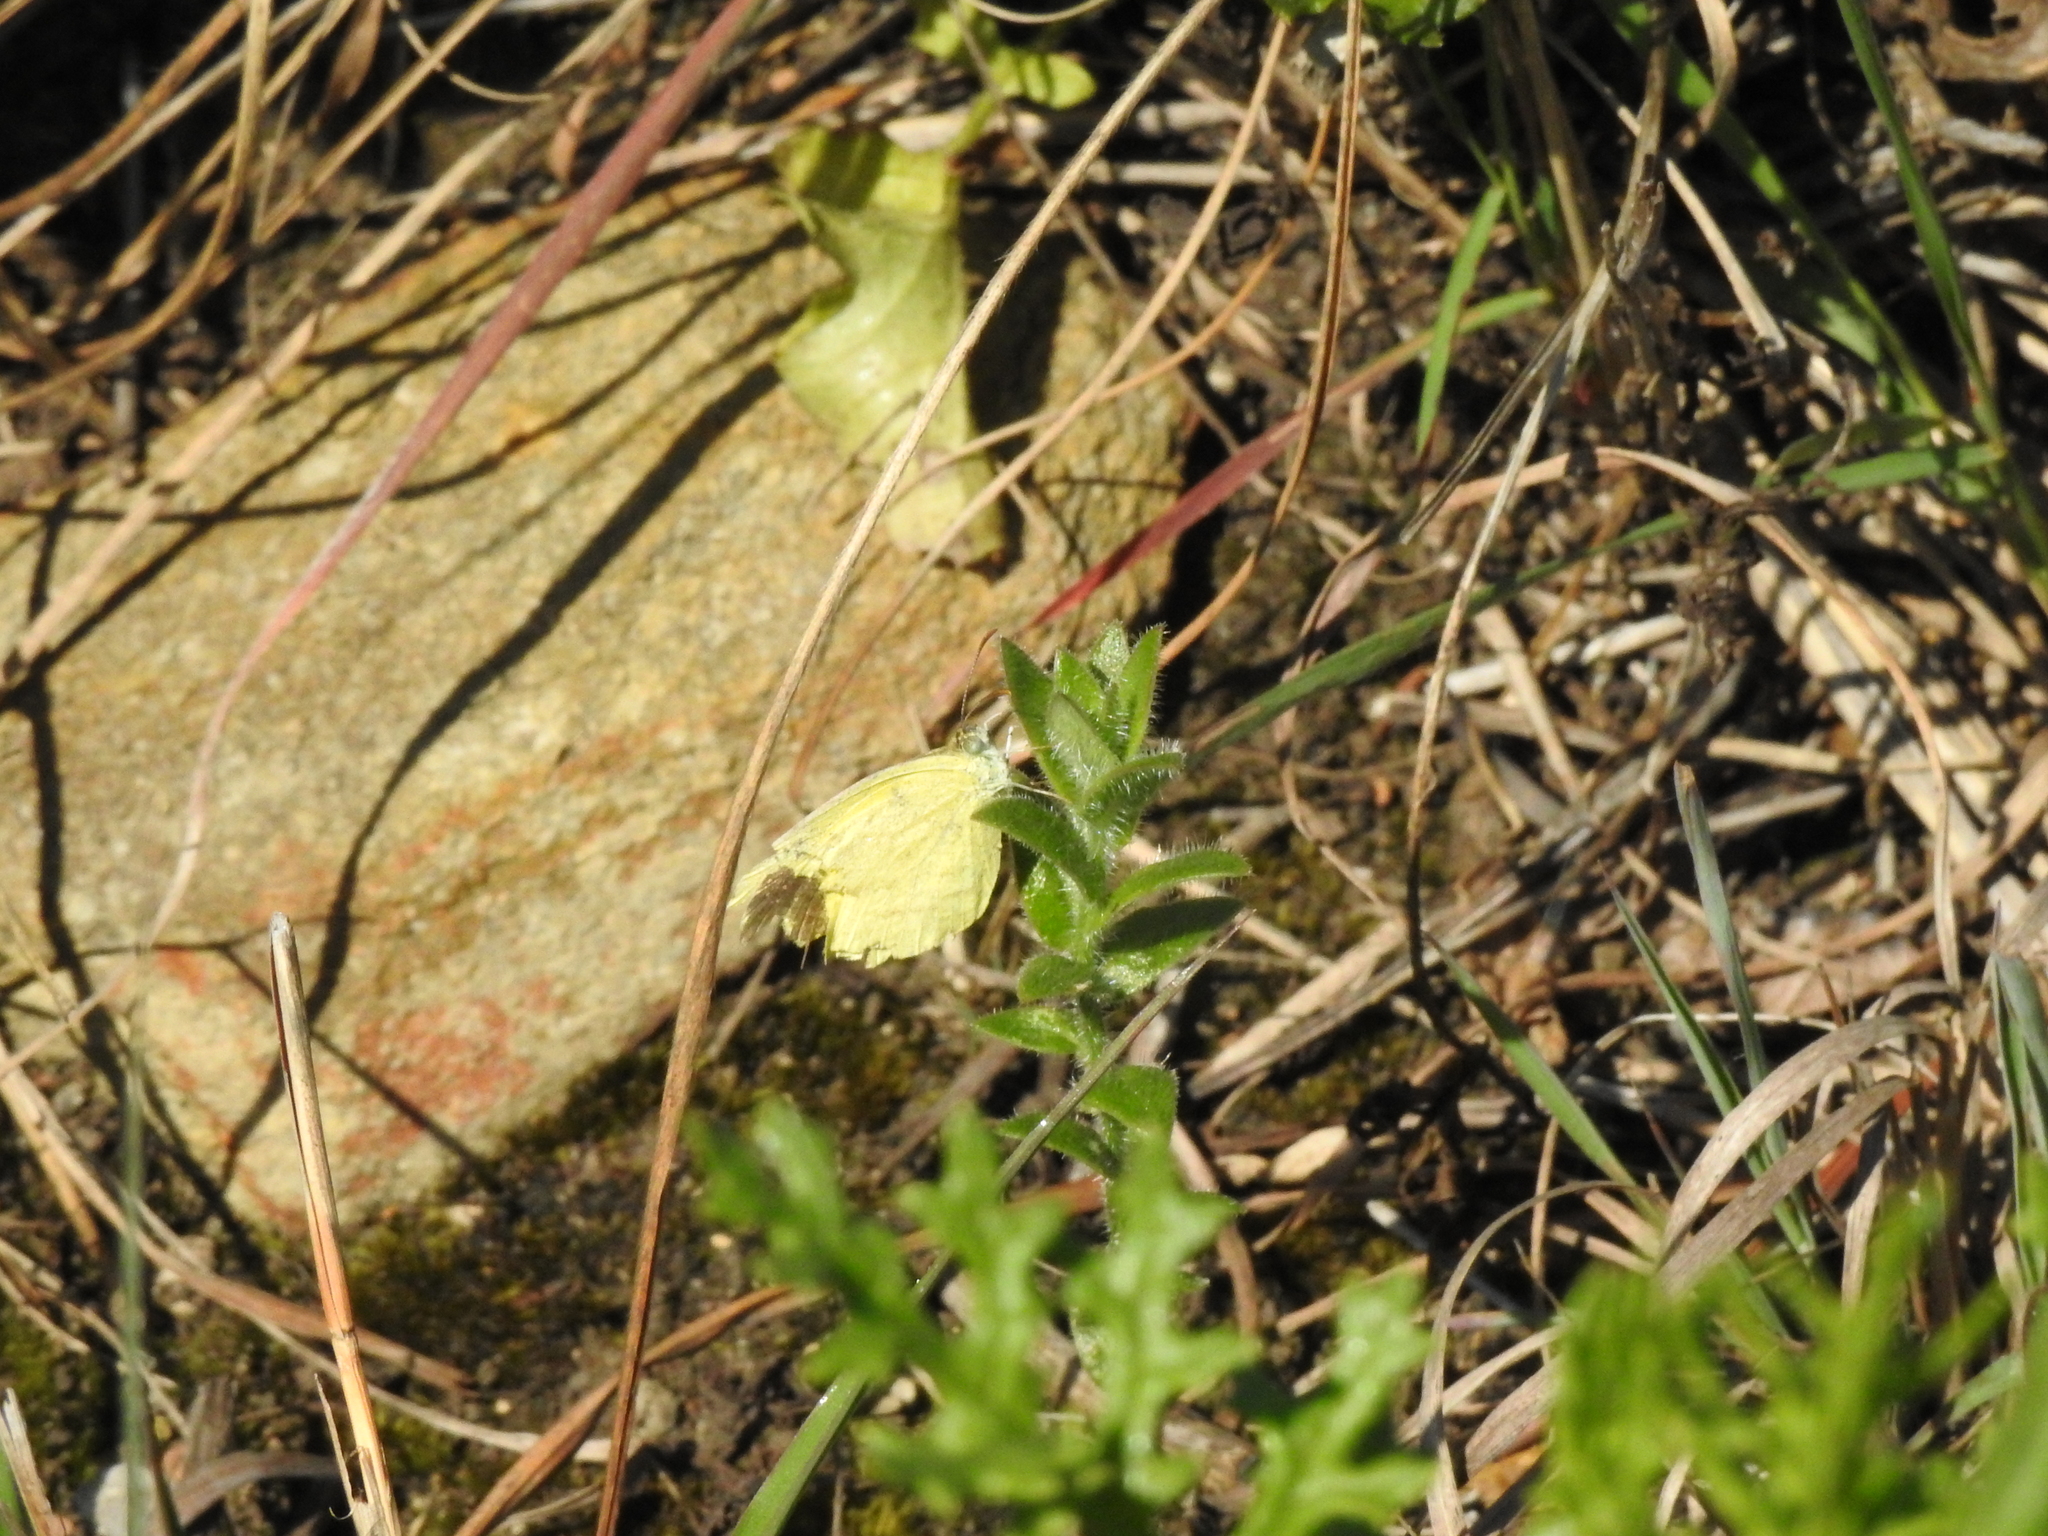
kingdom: Animalia
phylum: Arthropoda
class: Insecta
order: Lepidoptera
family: Pieridae
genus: Eurema
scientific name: Eurema brigitta
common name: Small grass yellow
